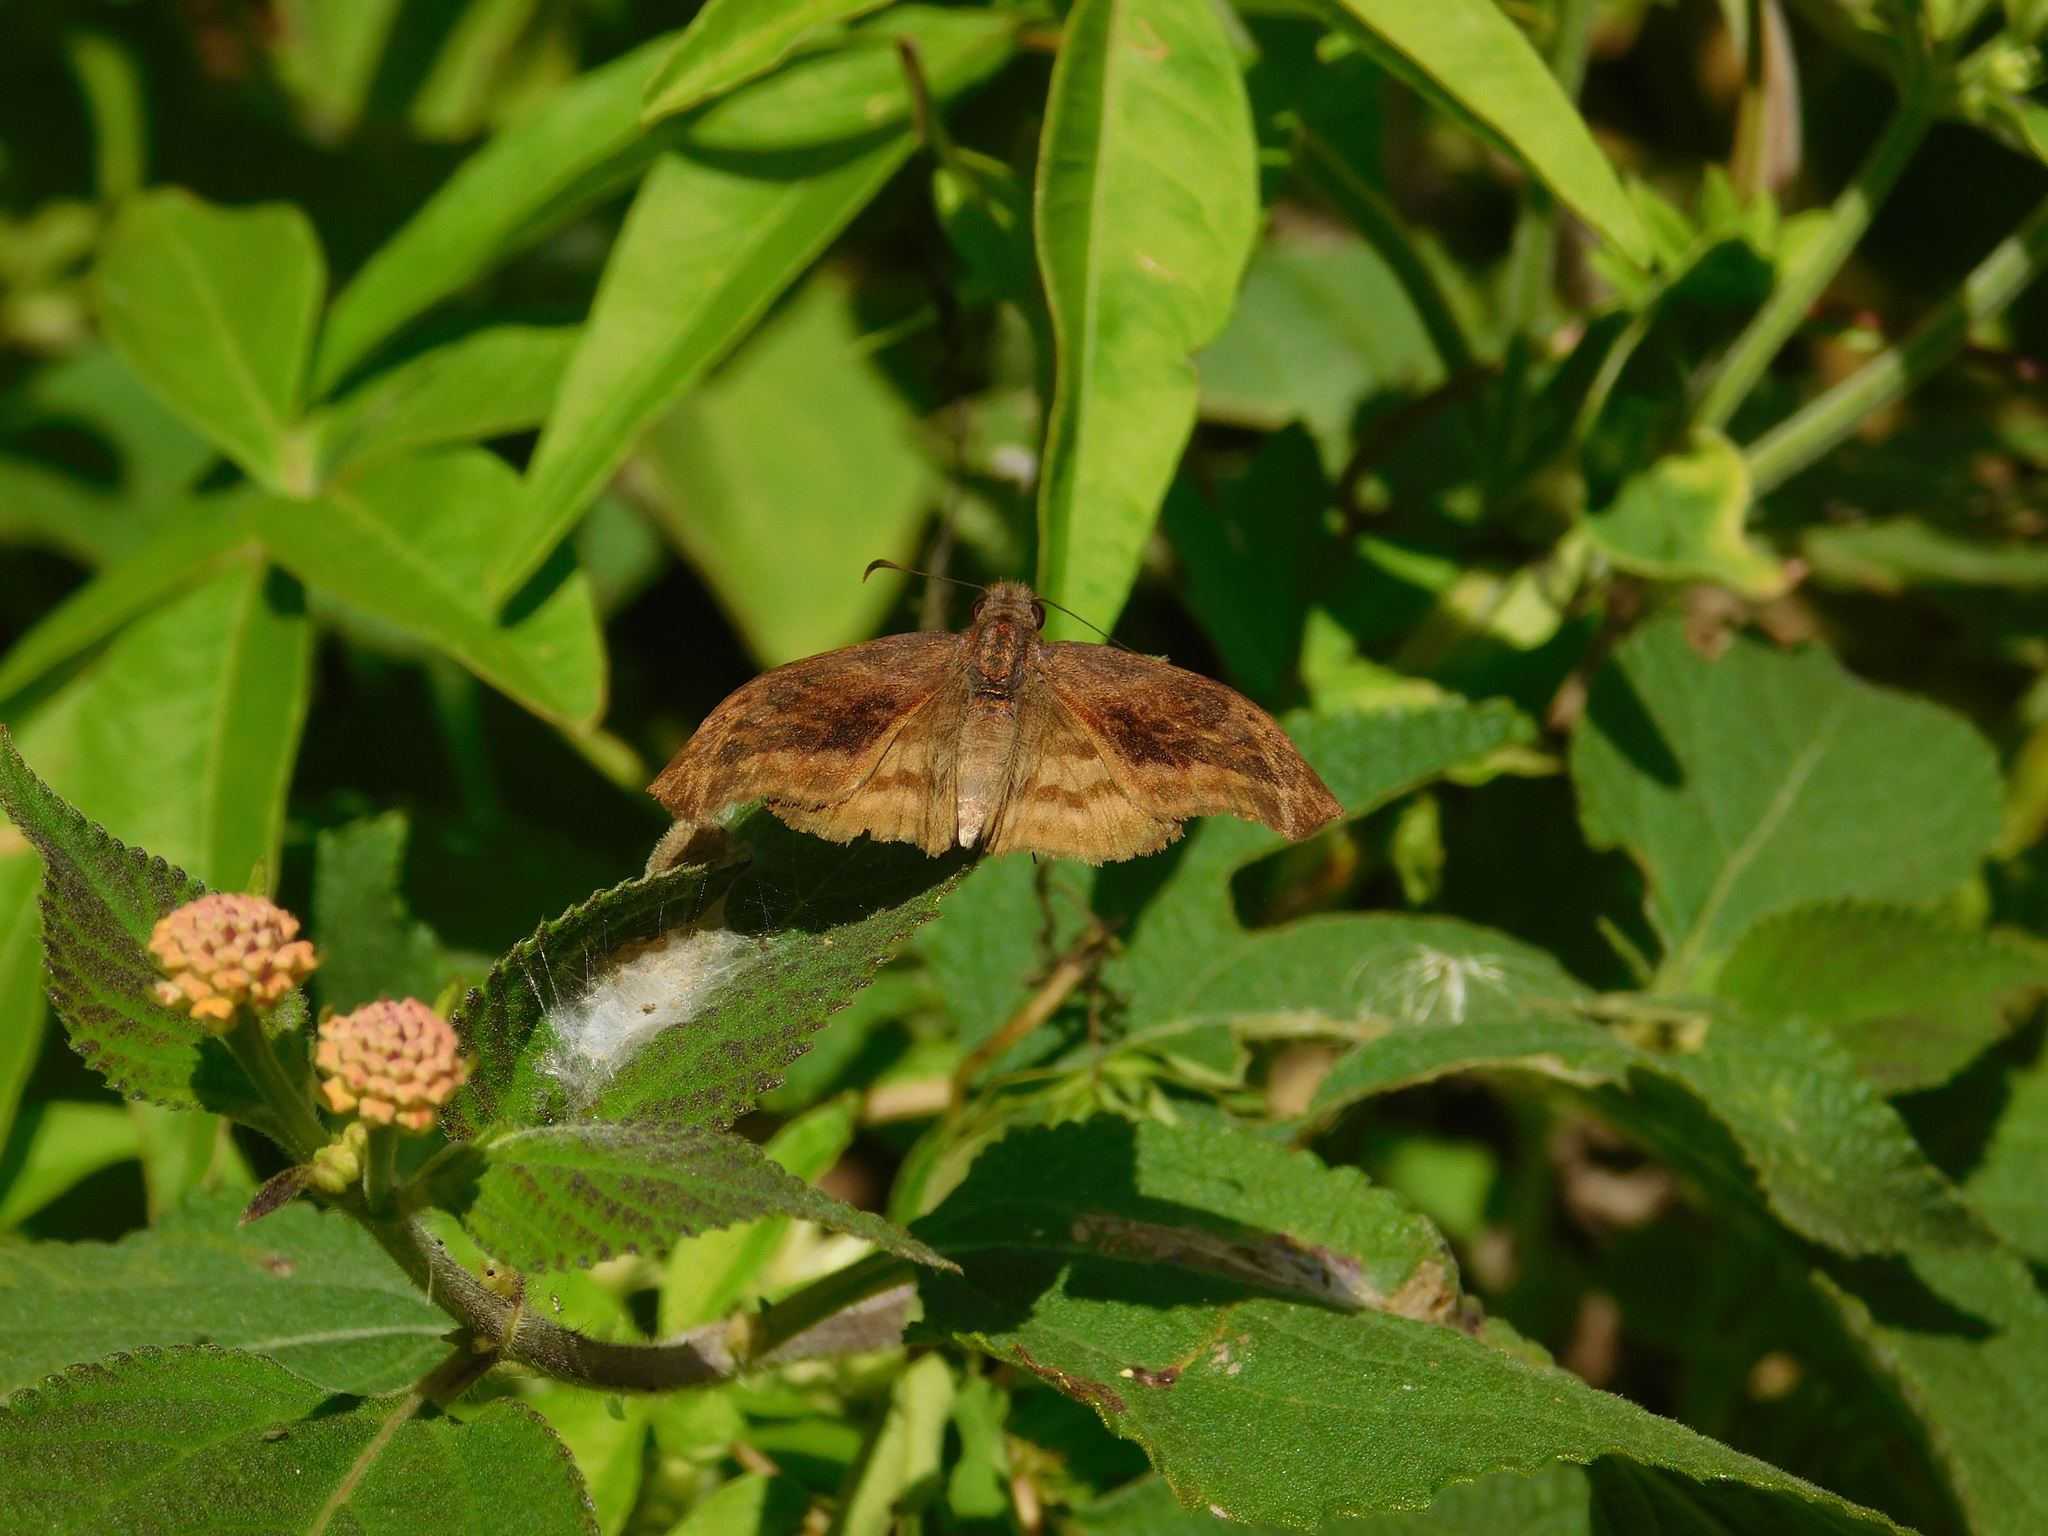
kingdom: Animalia
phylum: Arthropoda
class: Insecta
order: Lepidoptera
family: Hesperiidae
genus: Theagenes
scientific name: Theagenes dichrous
